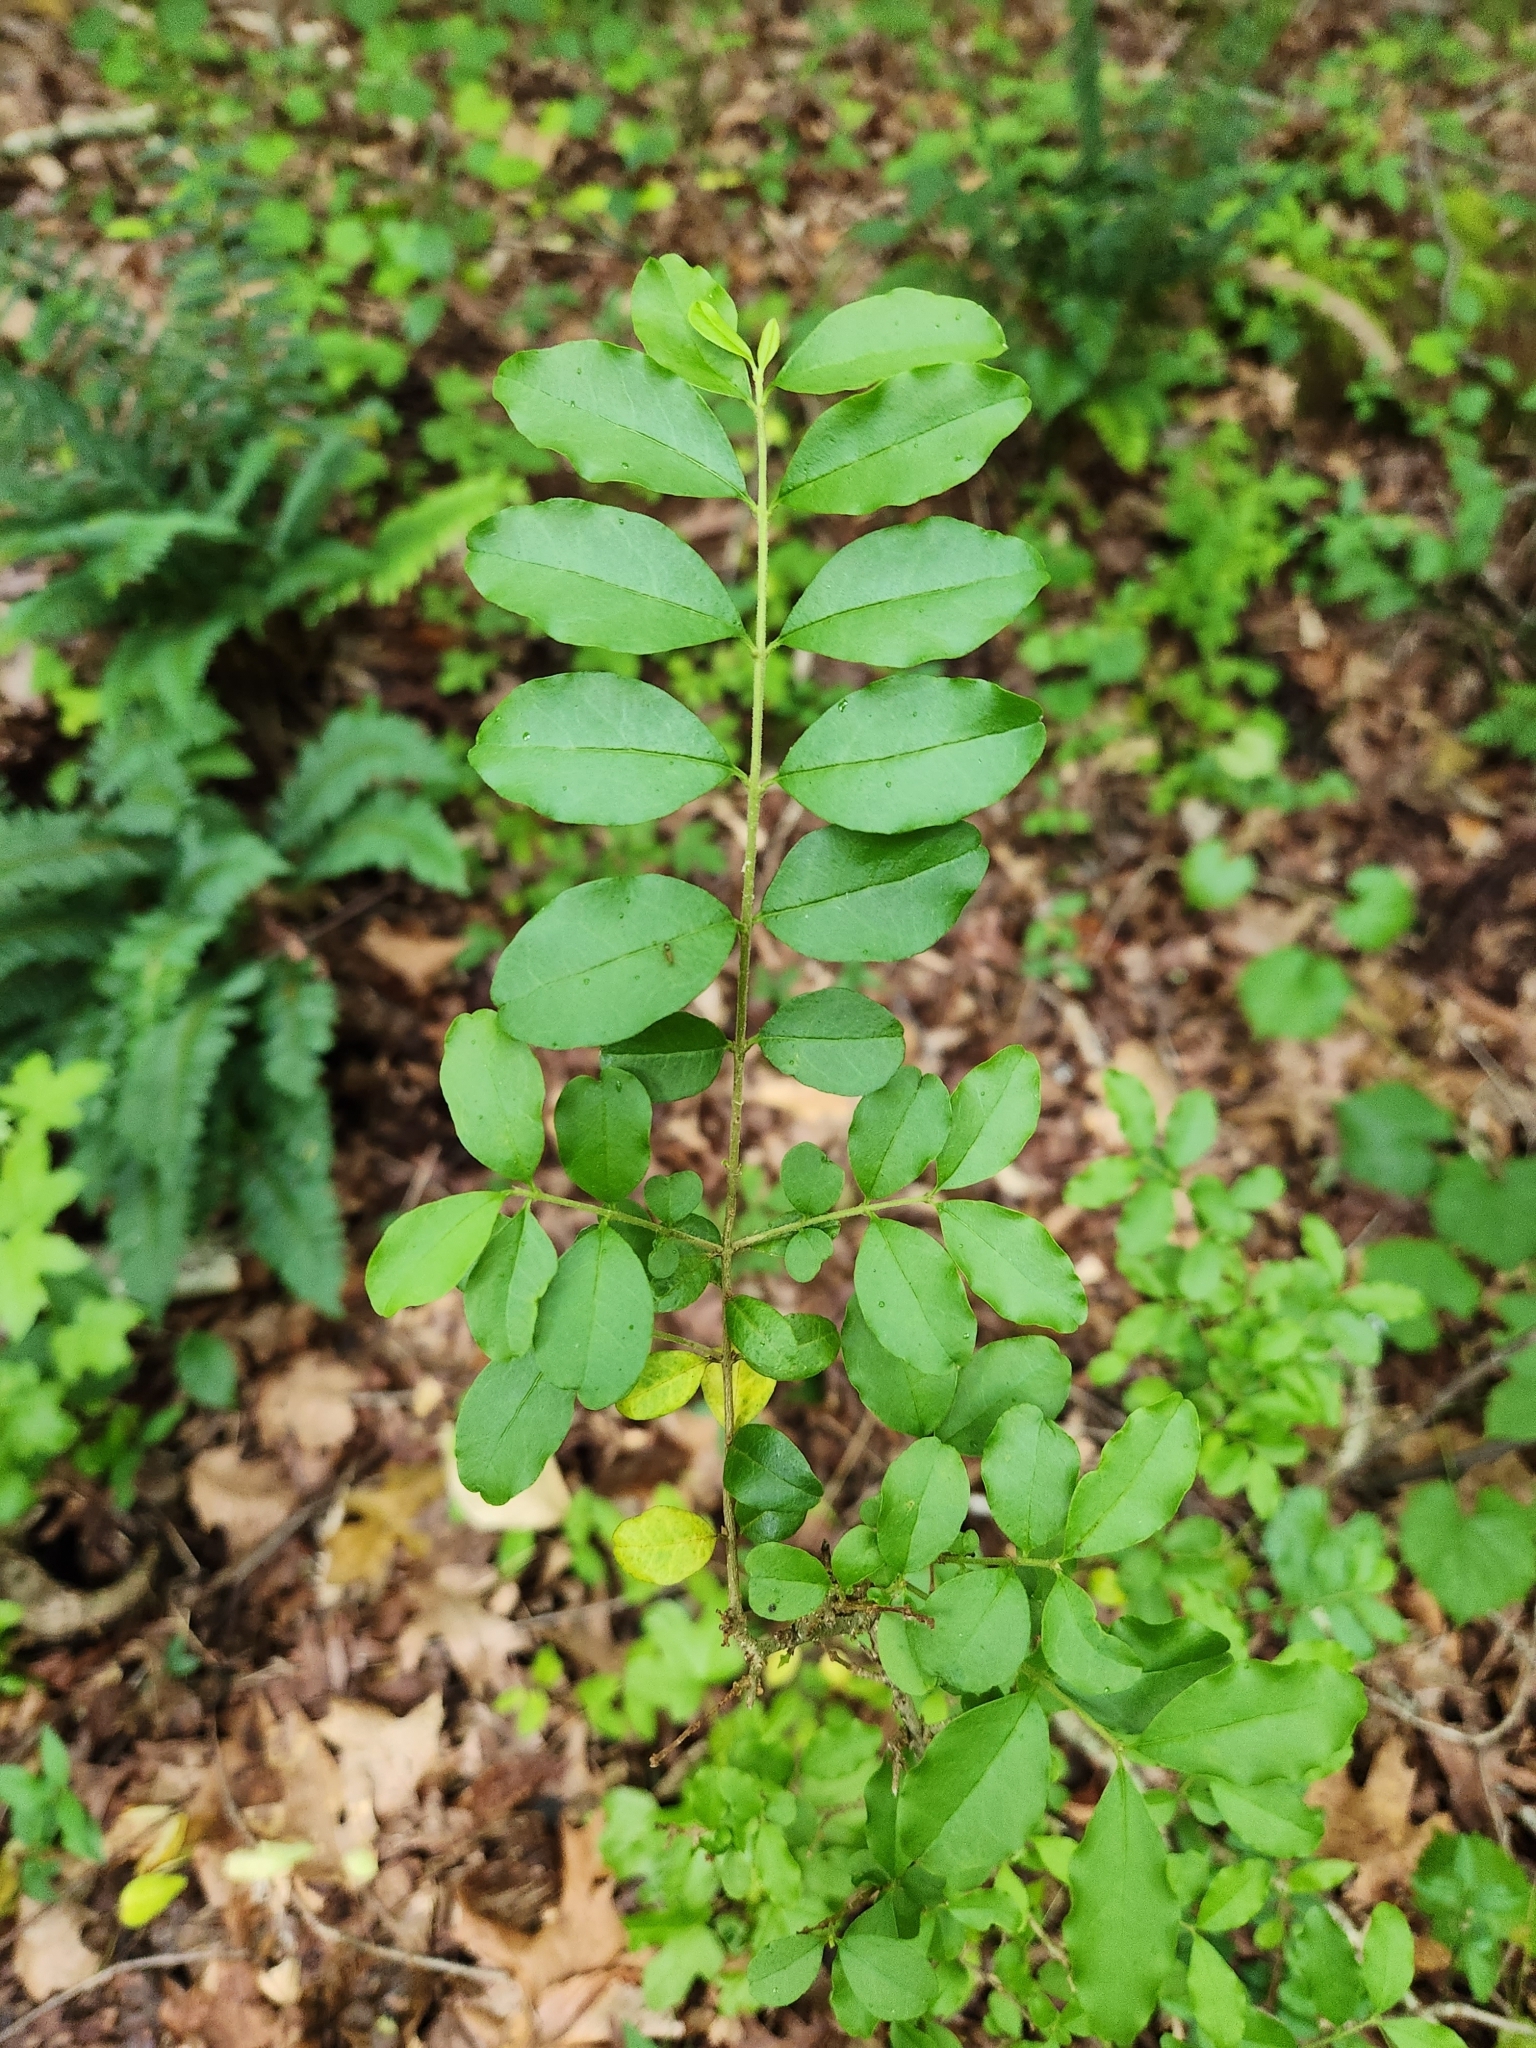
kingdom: Plantae
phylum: Tracheophyta
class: Magnoliopsida
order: Lamiales
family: Oleaceae
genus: Ligustrum
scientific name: Ligustrum sinense
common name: Chinese privet
